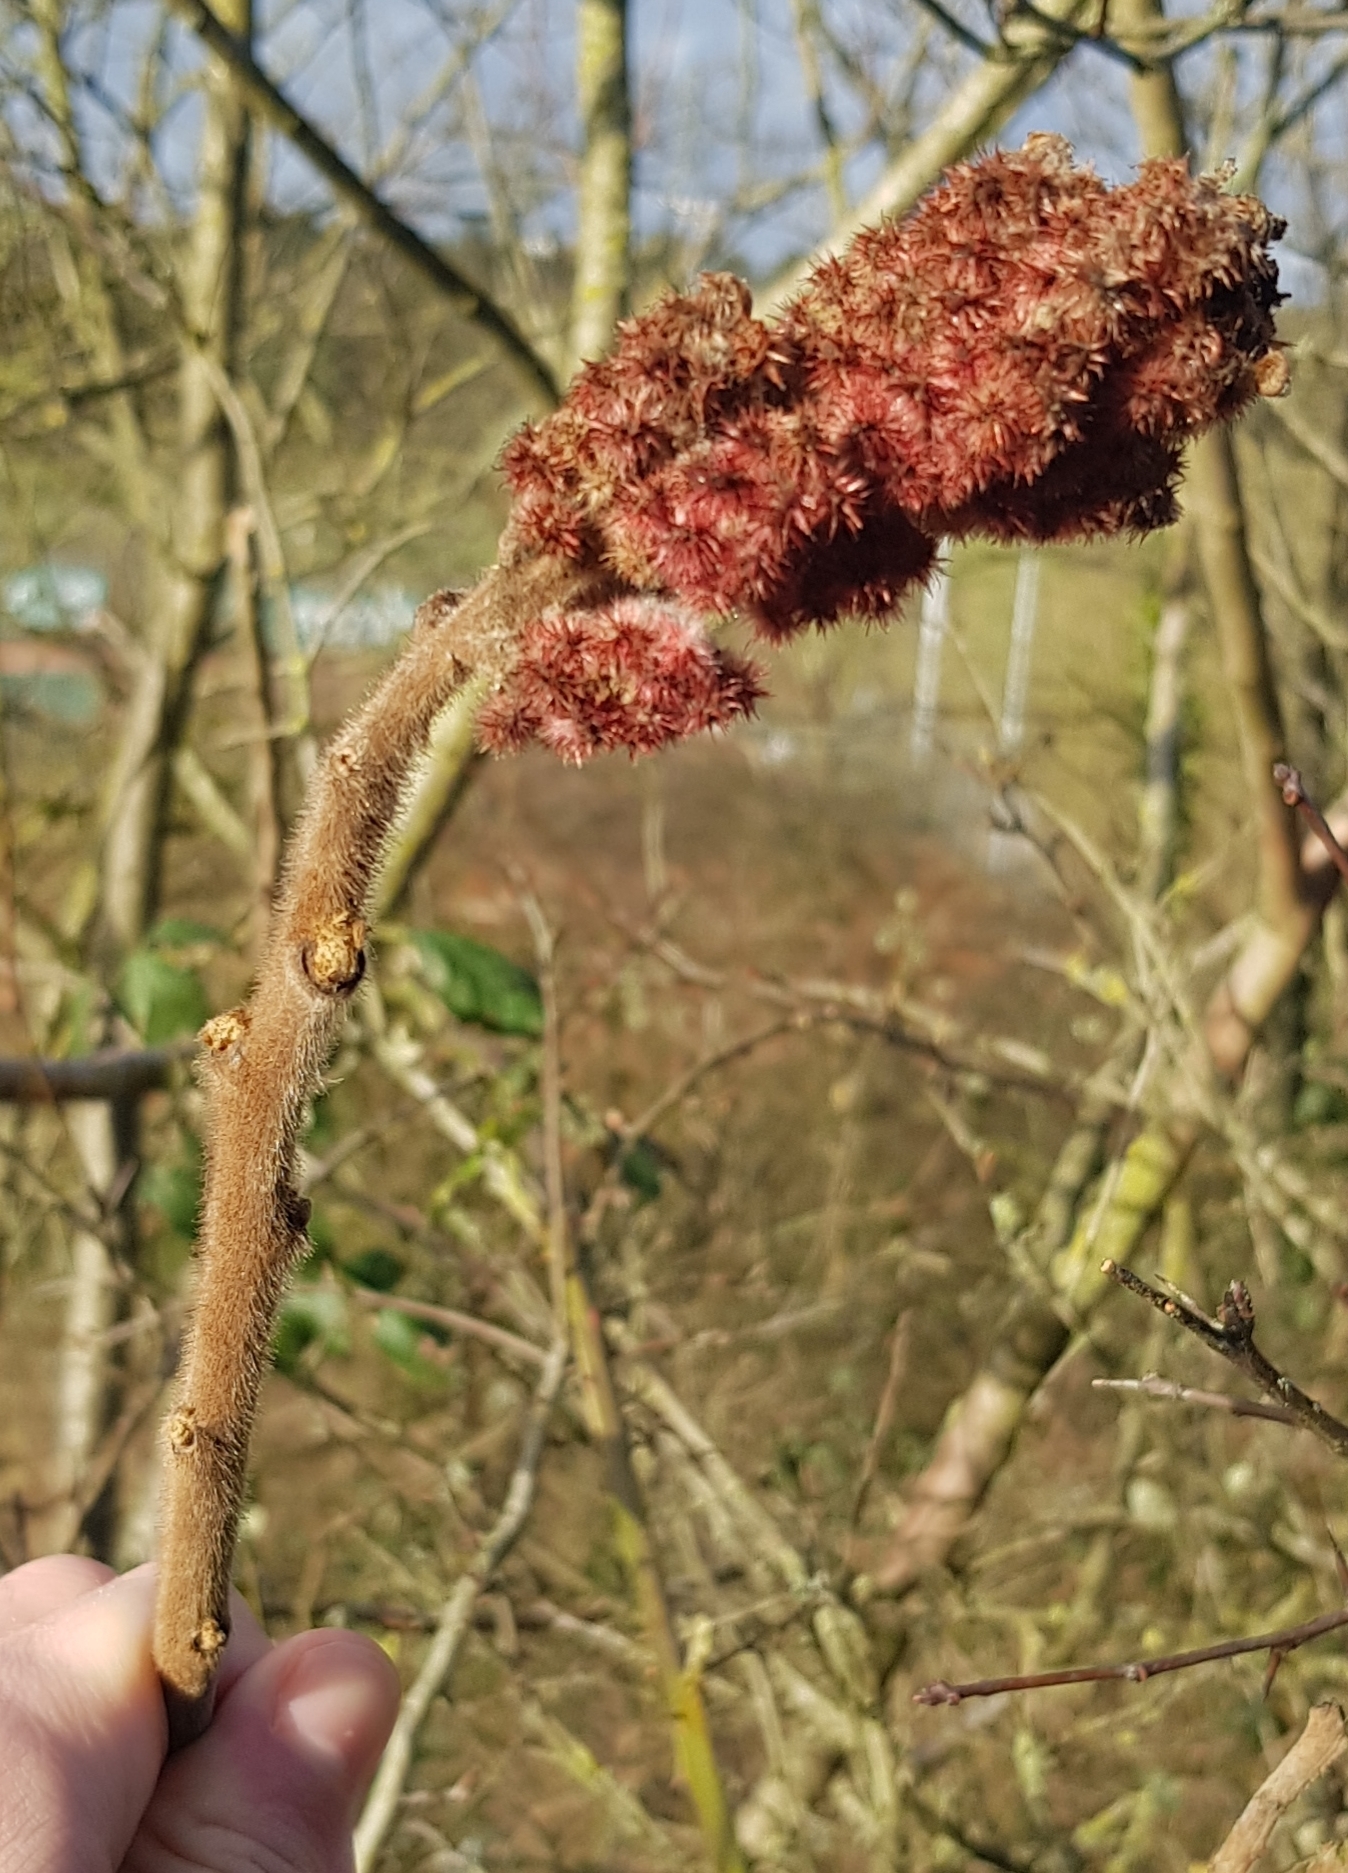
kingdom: Plantae
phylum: Tracheophyta
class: Magnoliopsida
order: Sapindales
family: Anacardiaceae
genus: Rhus
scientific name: Rhus typhina
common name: Staghorn sumac
